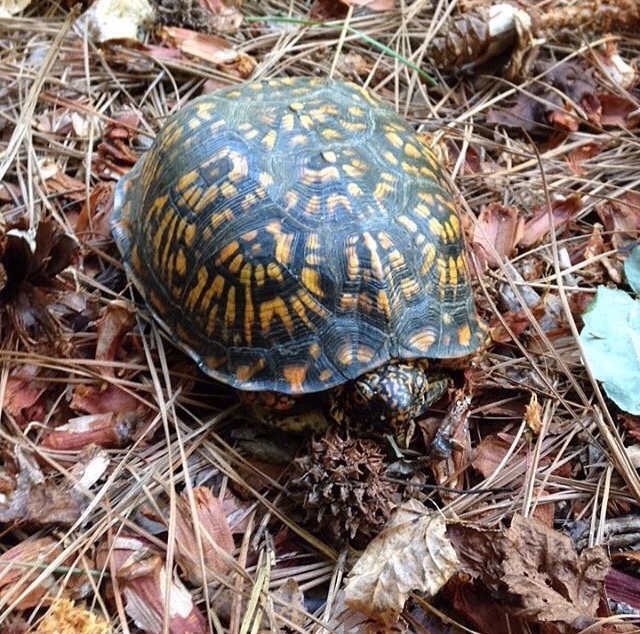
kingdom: Animalia
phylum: Chordata
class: Testudines
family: Emydidae
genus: Terrapene
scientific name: Terrapene carolina
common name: Common box turtle
